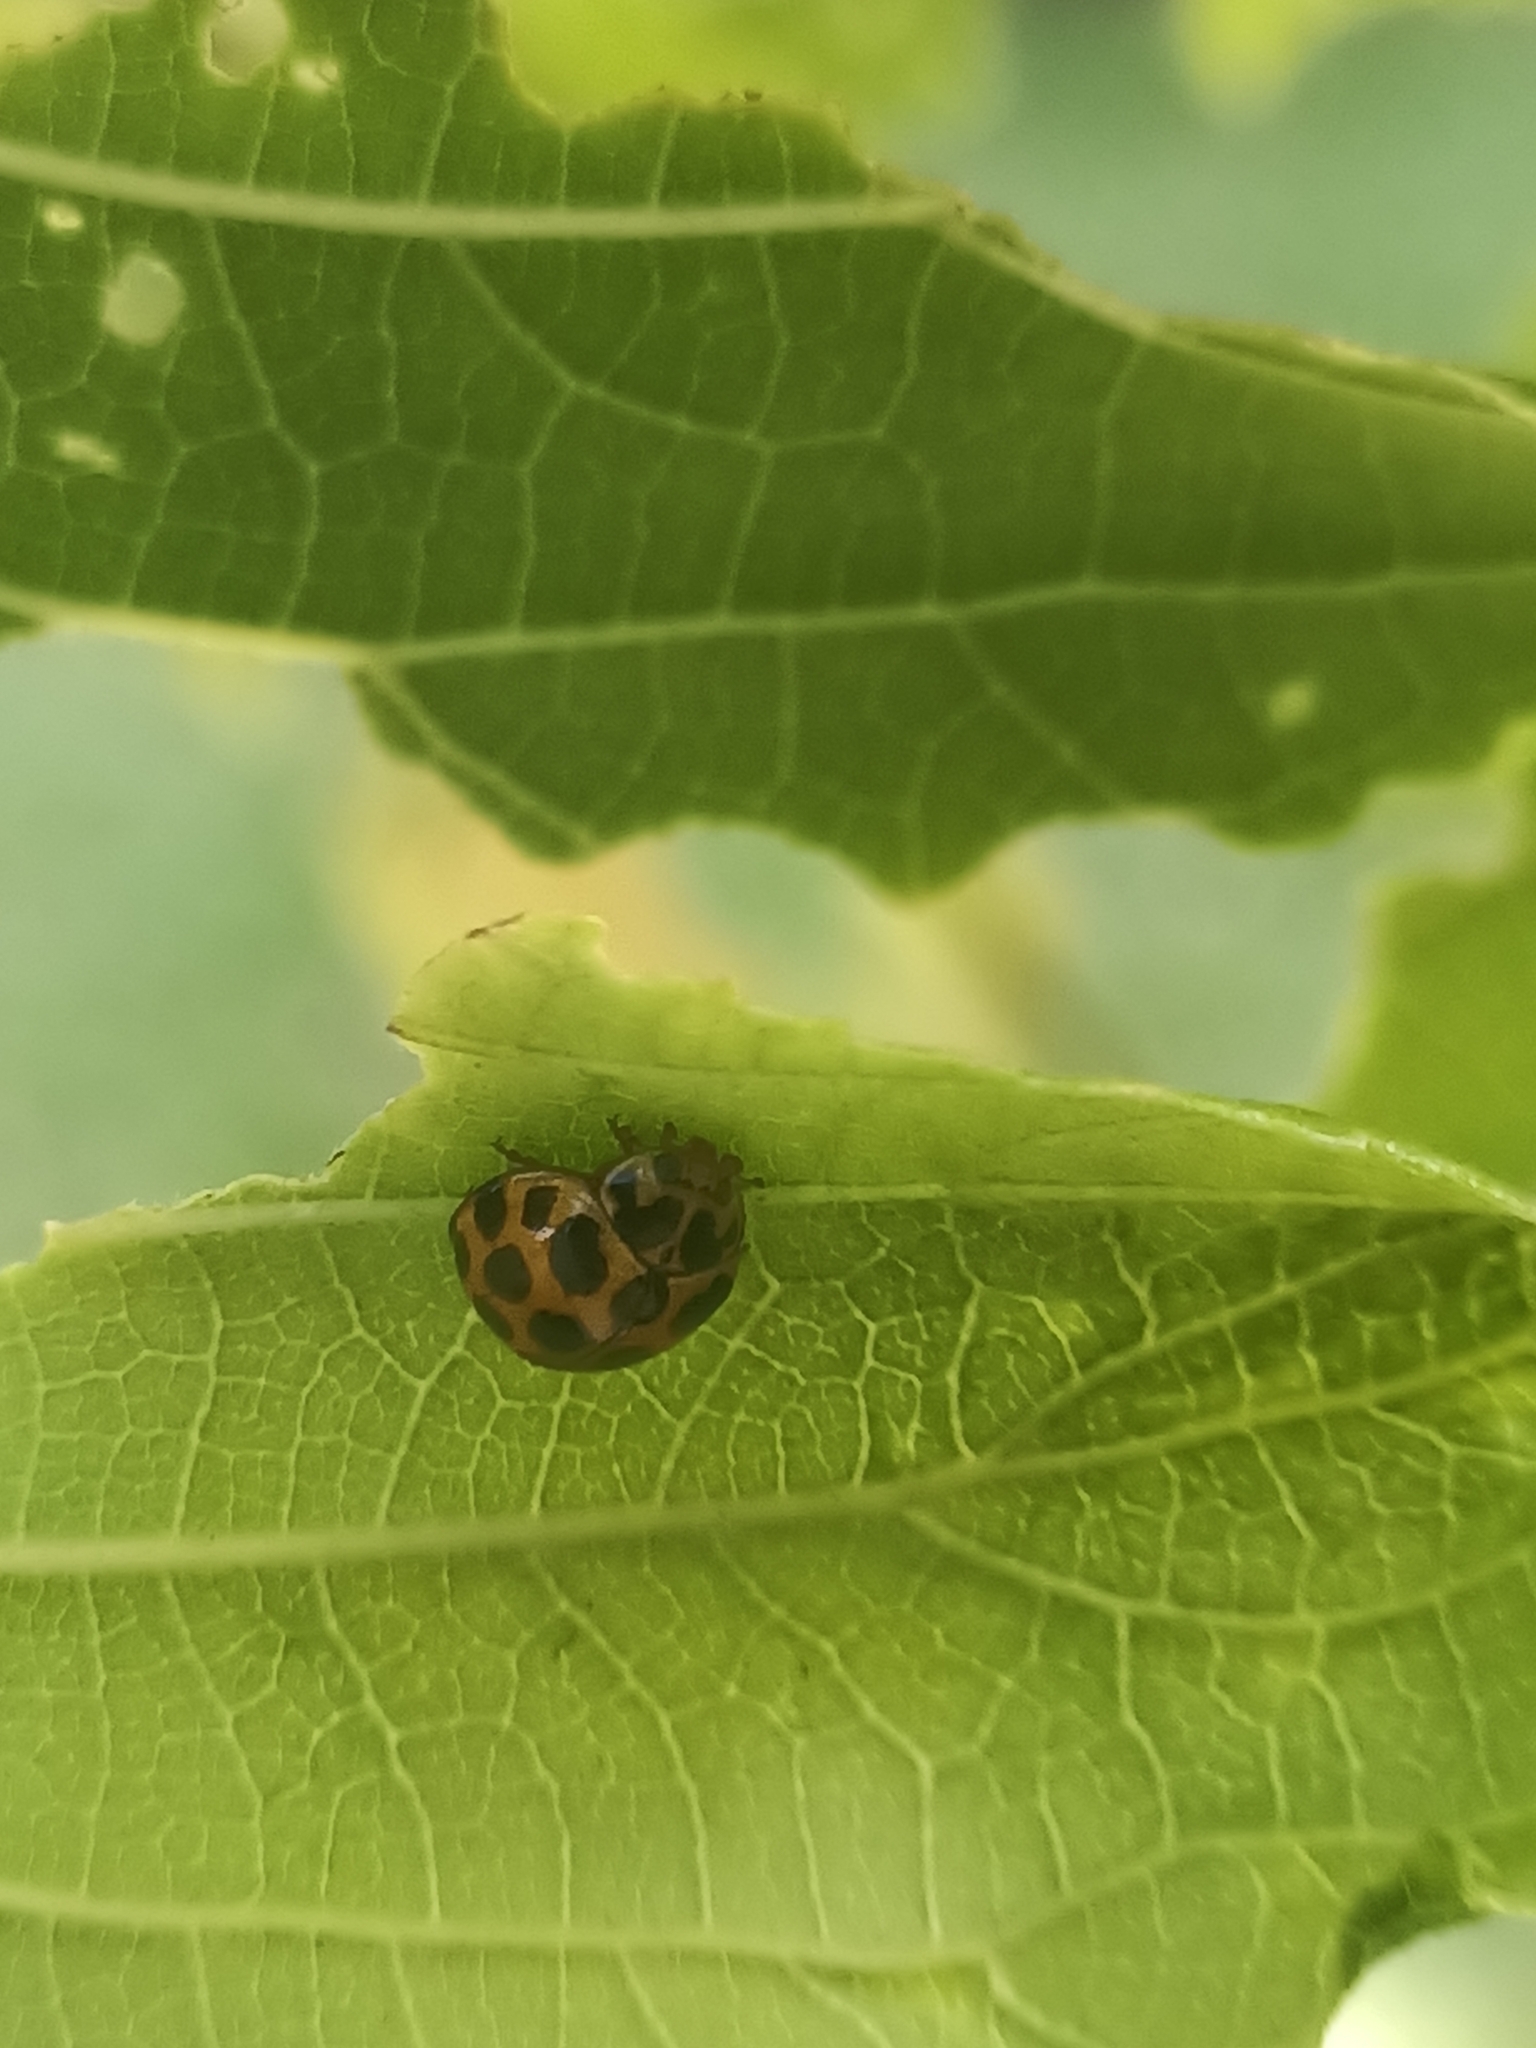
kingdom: Animalia
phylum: Arthropoda
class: Insecta
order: Coleoptera
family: Coccinellidae
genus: Harmonia
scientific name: Harmonia conformis
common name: Common spotted ladybird beetle
